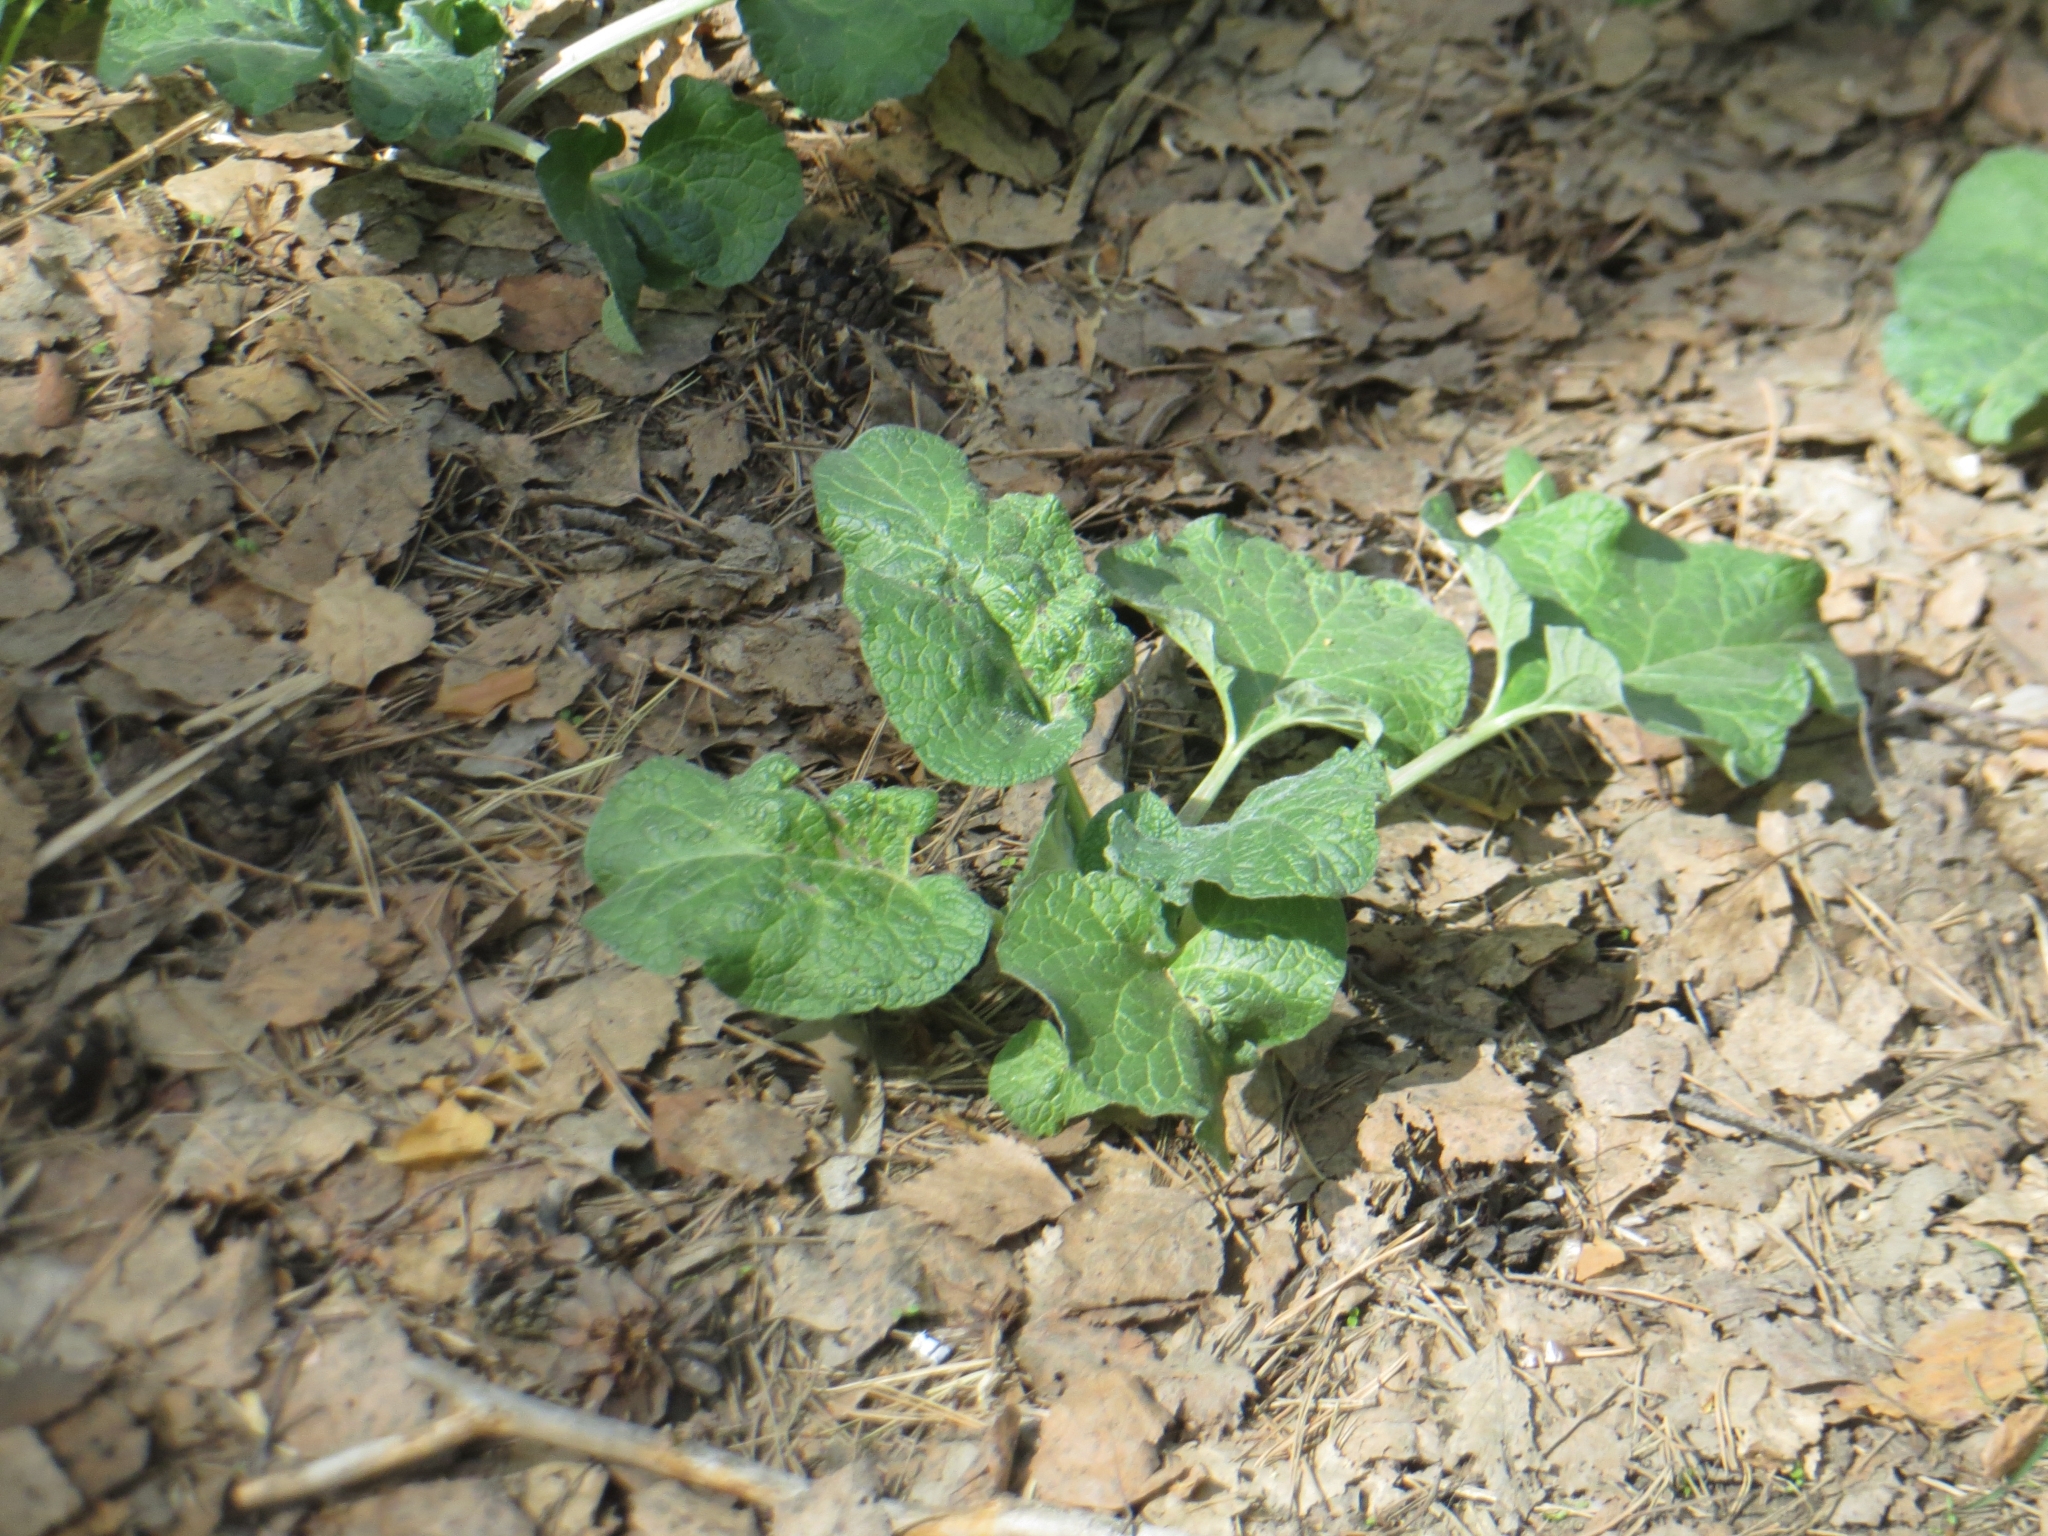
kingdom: Plantae
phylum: Tracheophyta
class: Magnoliopsida
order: Asterales
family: Asteraceae
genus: Arctium
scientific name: Arctium tomentosum
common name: Woolly burdock
